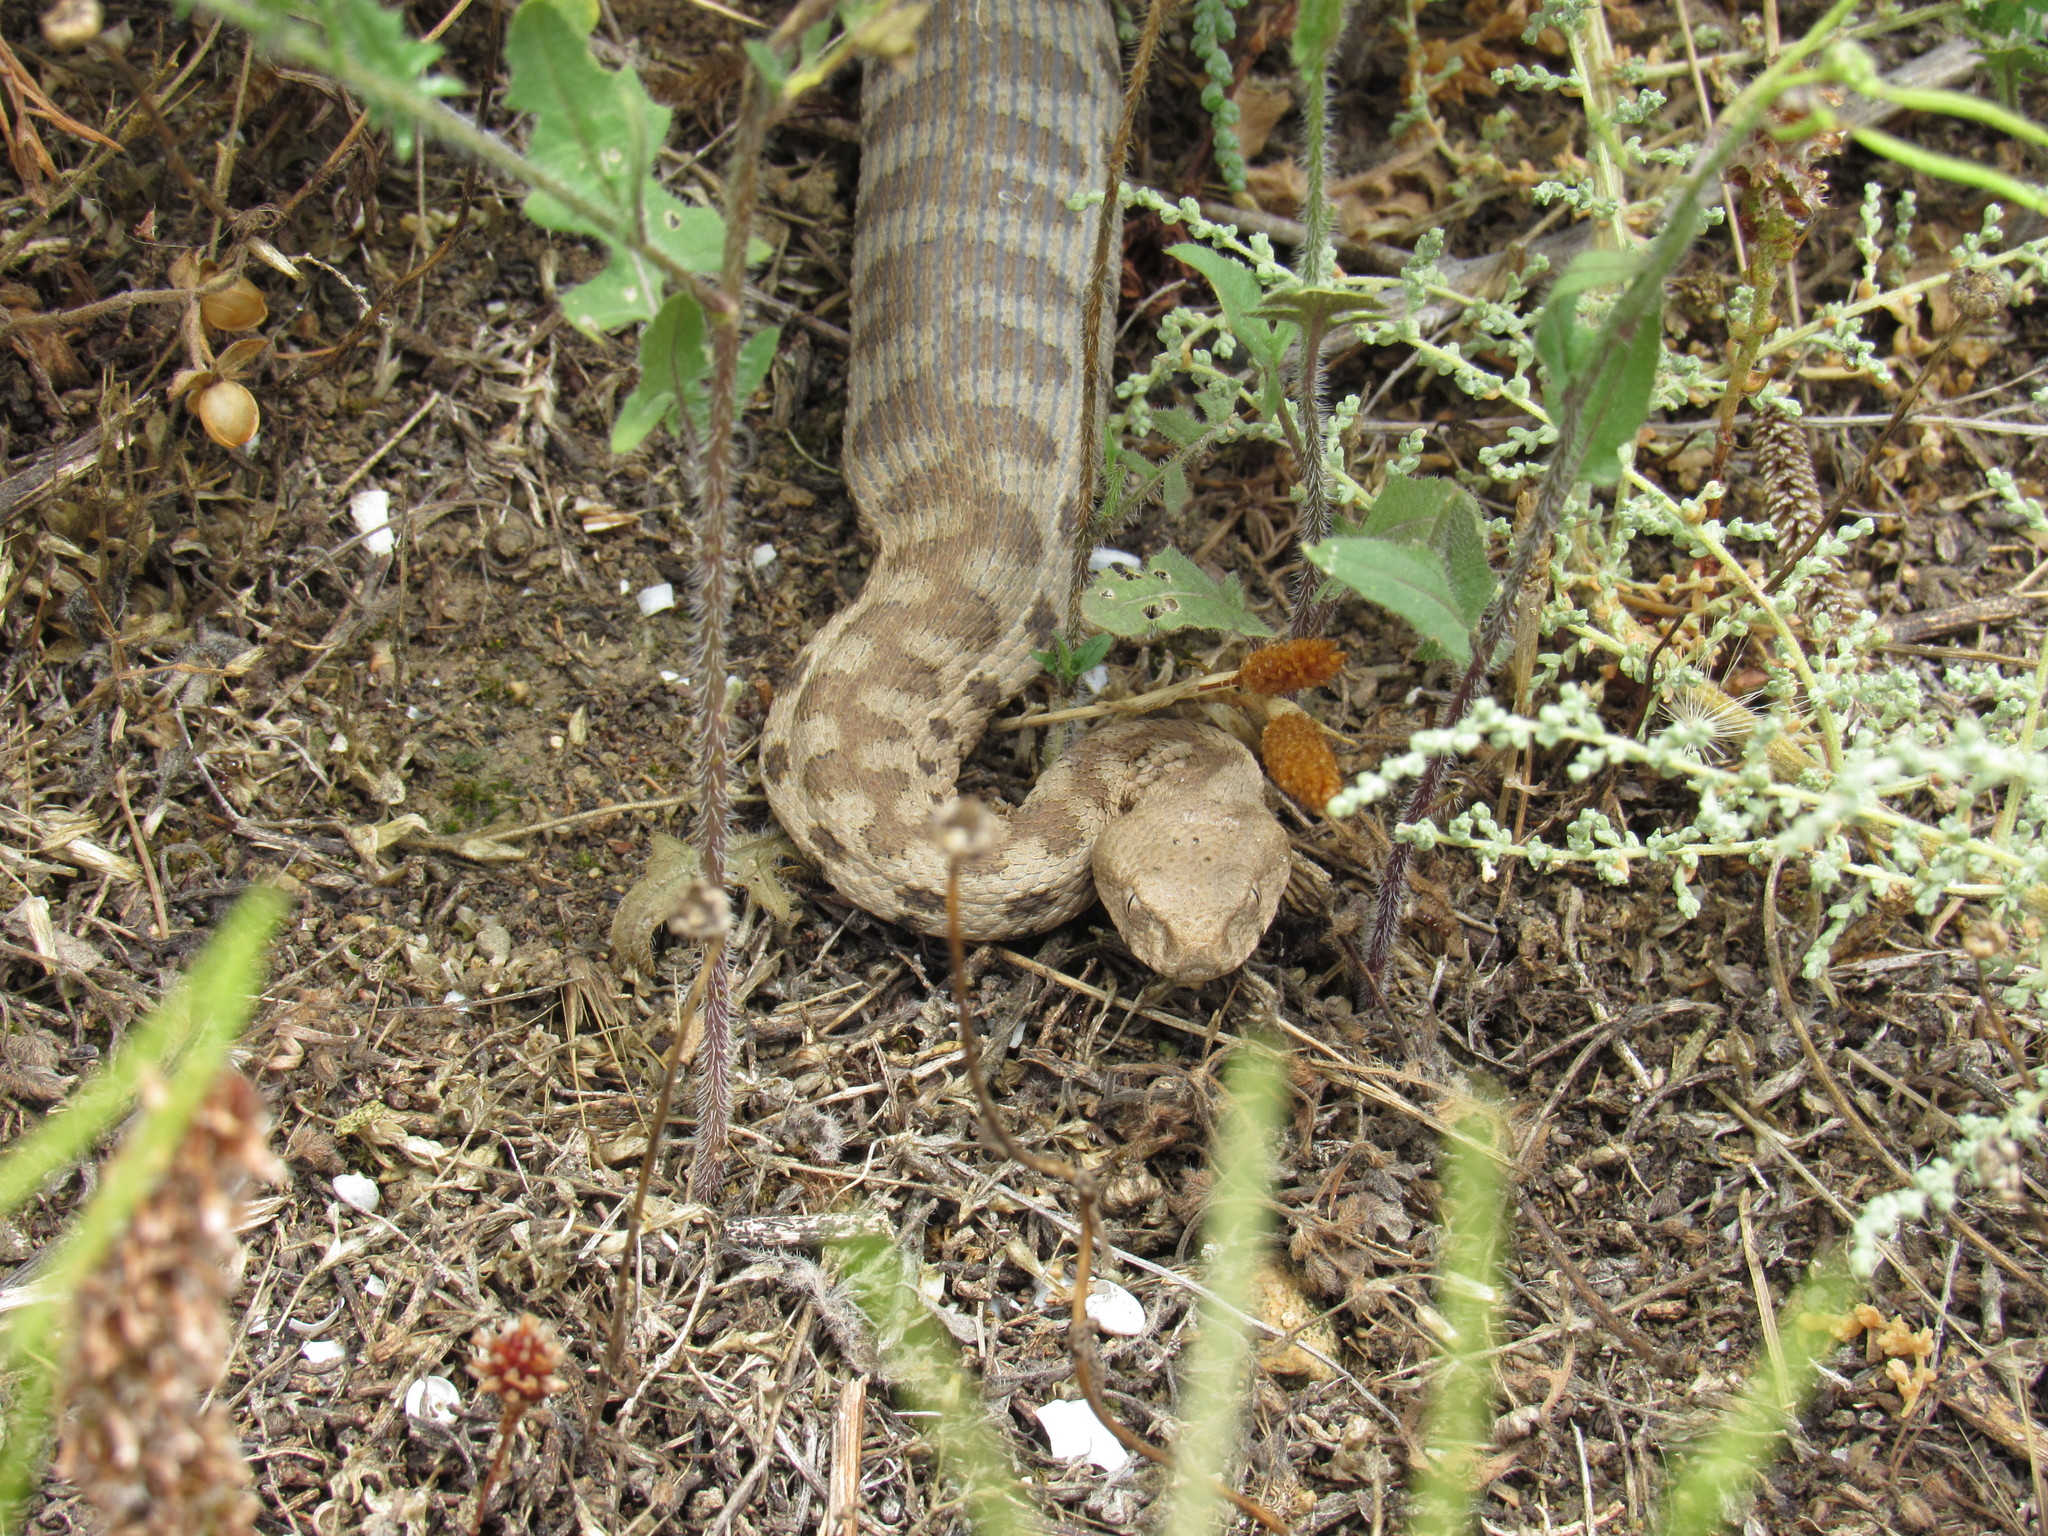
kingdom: Animalia
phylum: Chordata
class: Squamata
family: Viperidae
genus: Macrovipera
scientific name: Macrovipera lebetinus
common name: Levantine viper
